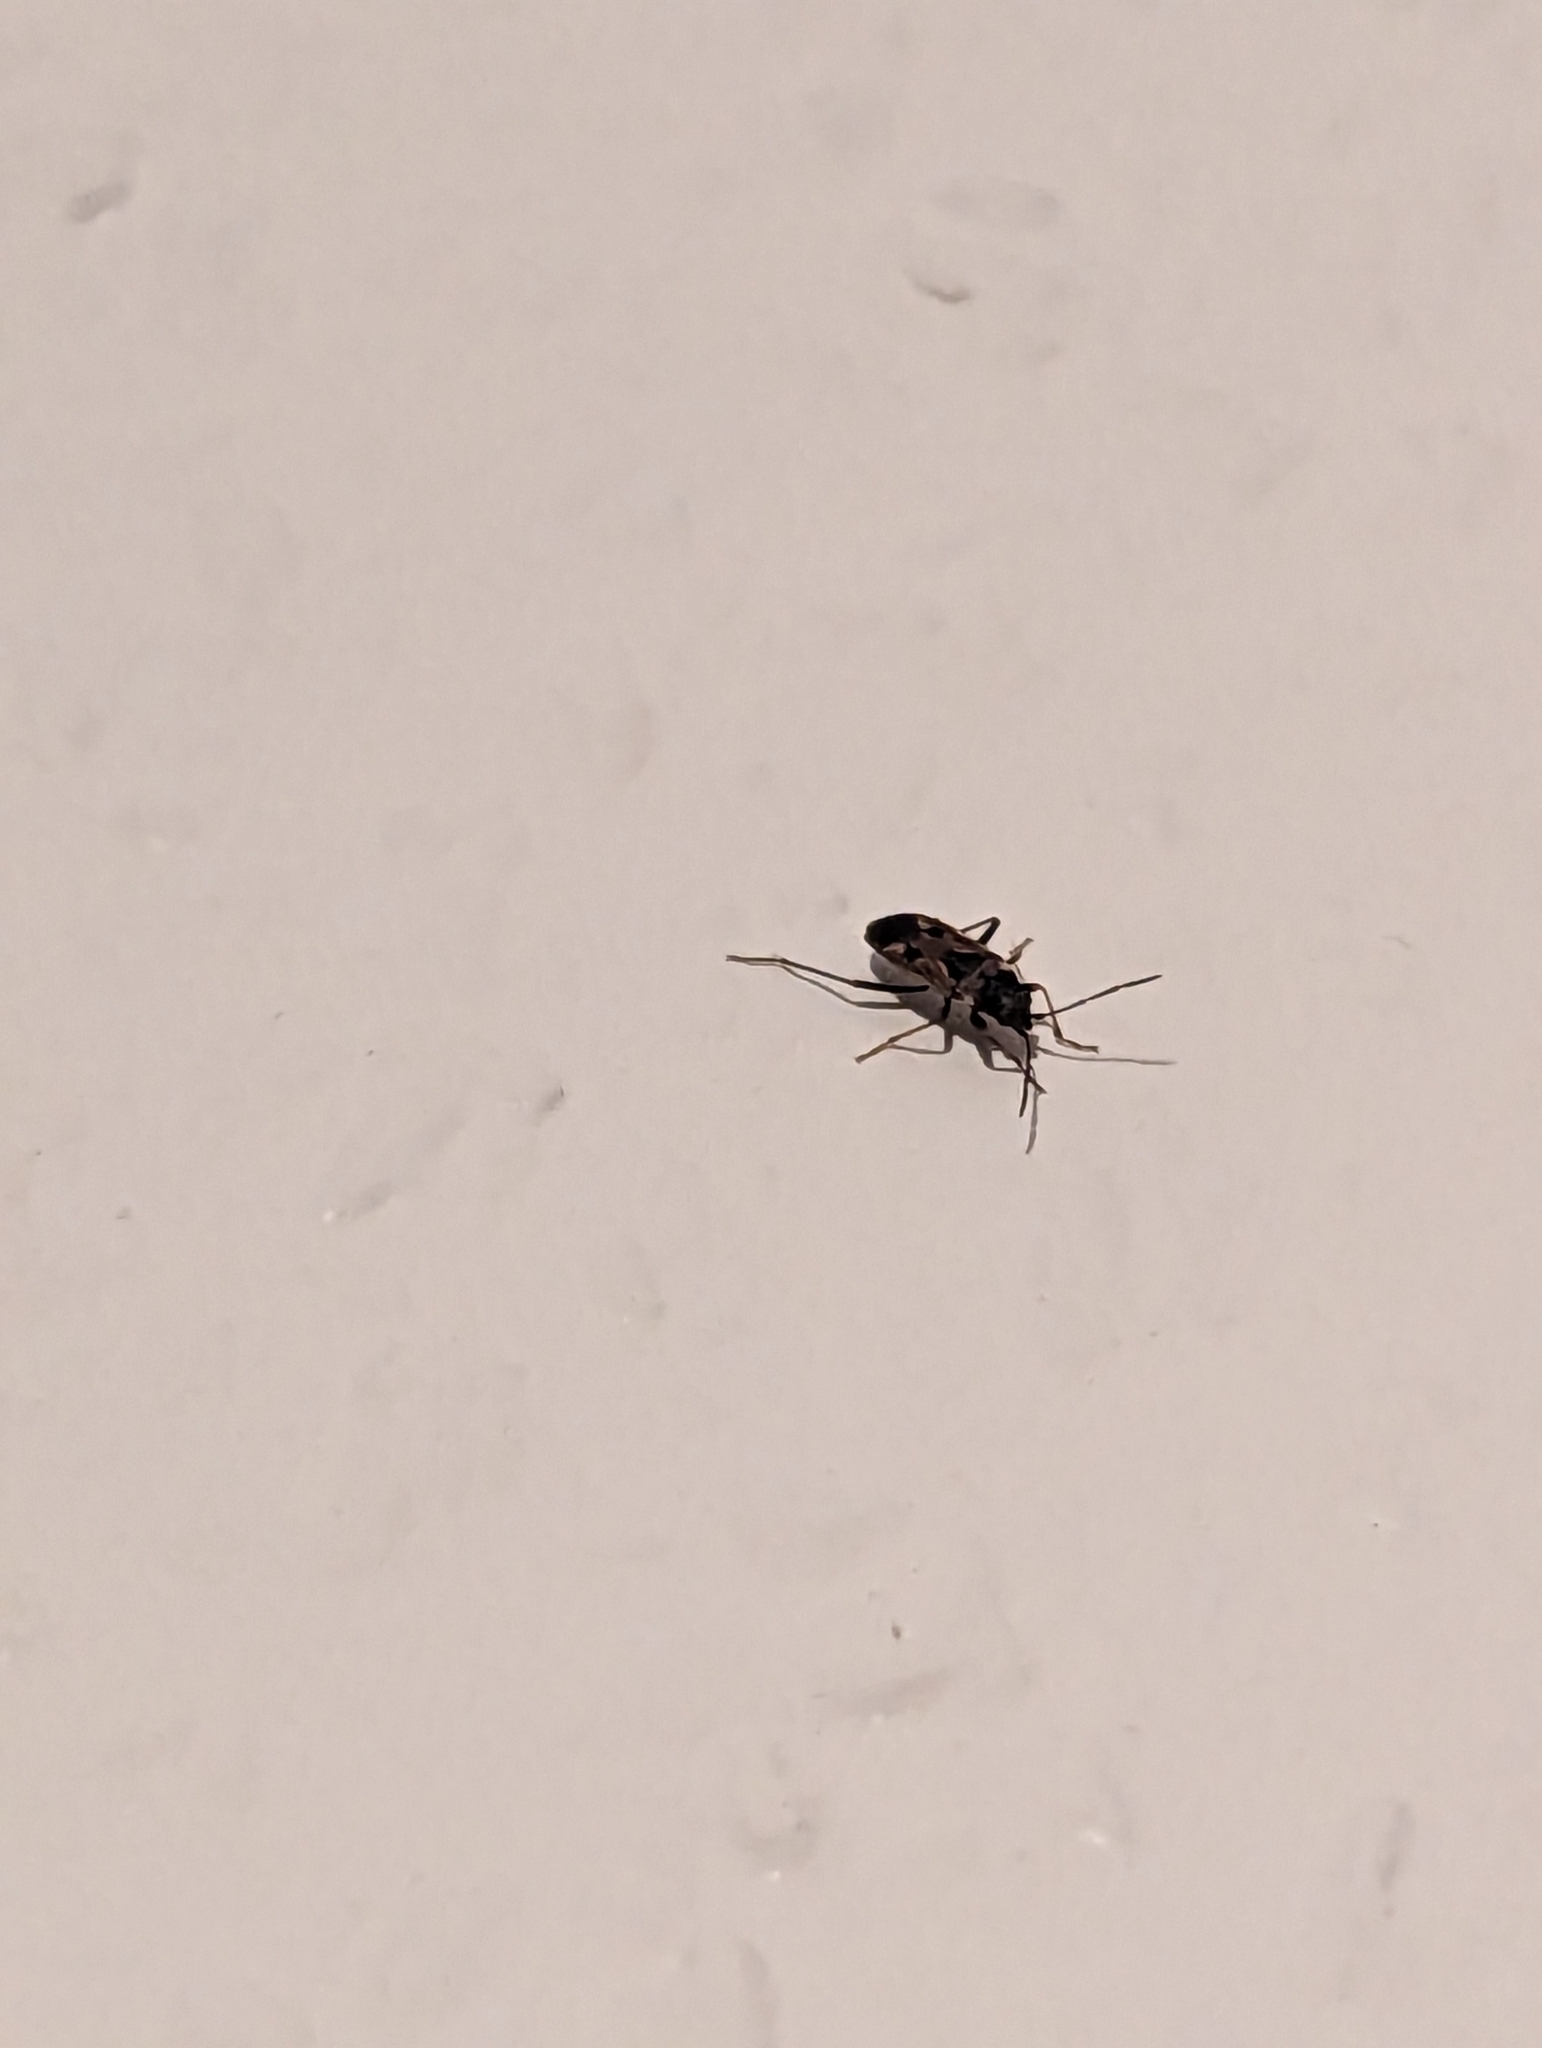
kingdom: Animalia
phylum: Arthropoda
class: Insecta
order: Hemiptera
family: Rhyparochromidae
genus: Rhyparochromus
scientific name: Rhyparochromus vulgaris
